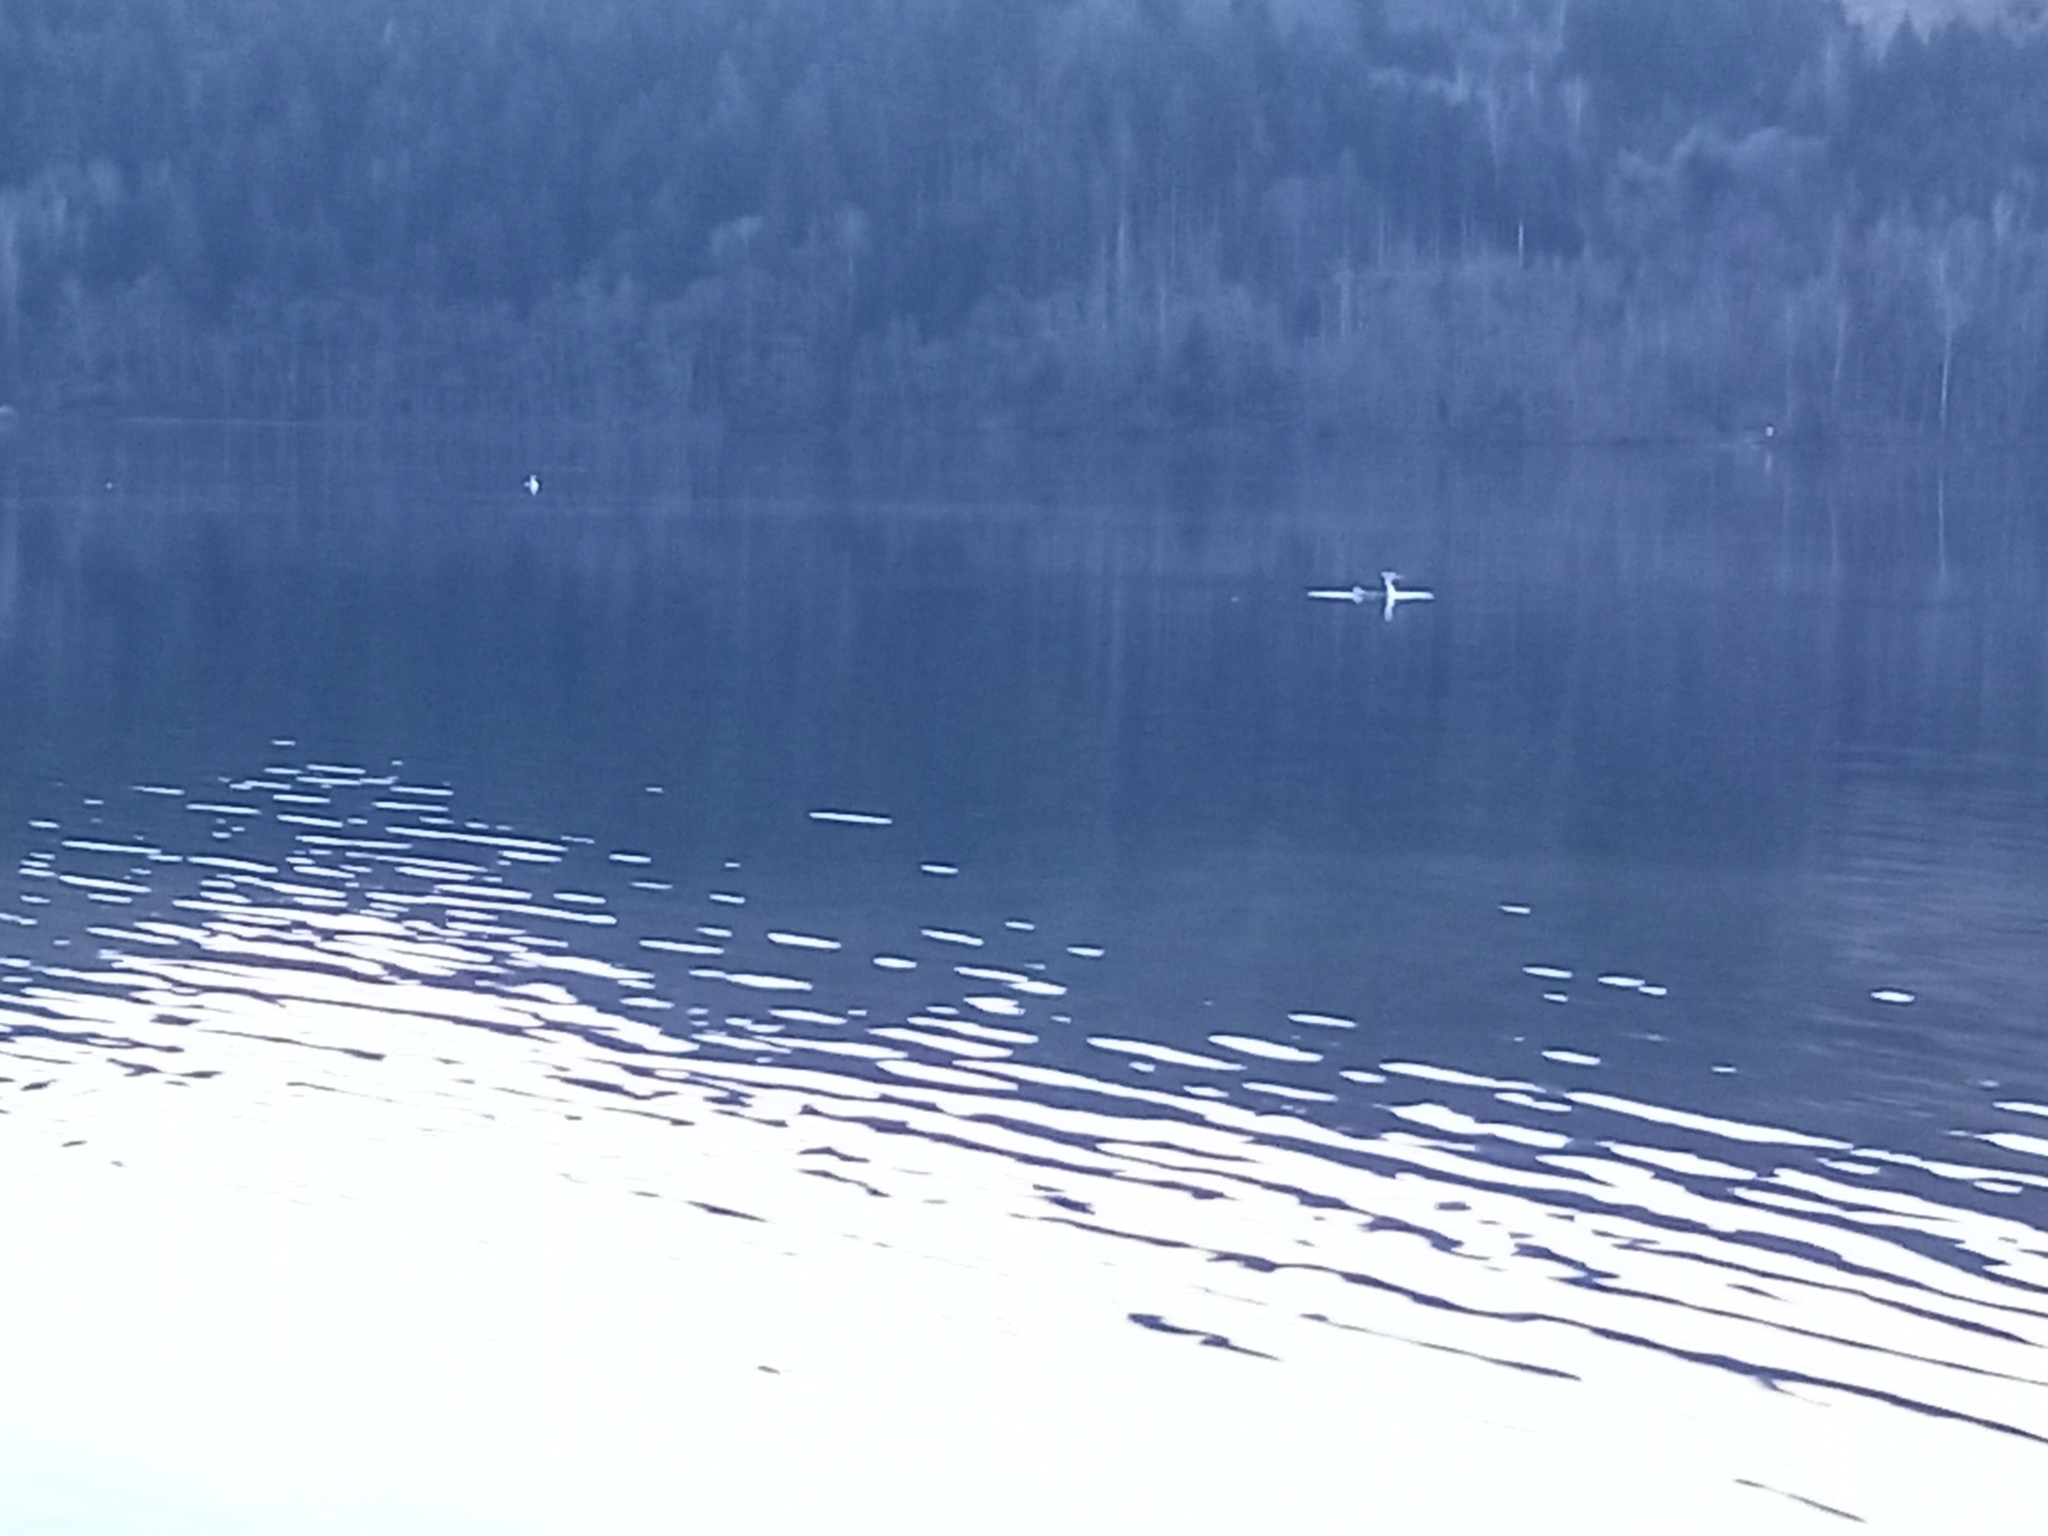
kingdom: Animalia
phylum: Chordata
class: Aves
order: Podicipediformes
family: Podicipedidae
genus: Podiceps
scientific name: Podiceps cristatus
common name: Great crested grebe
